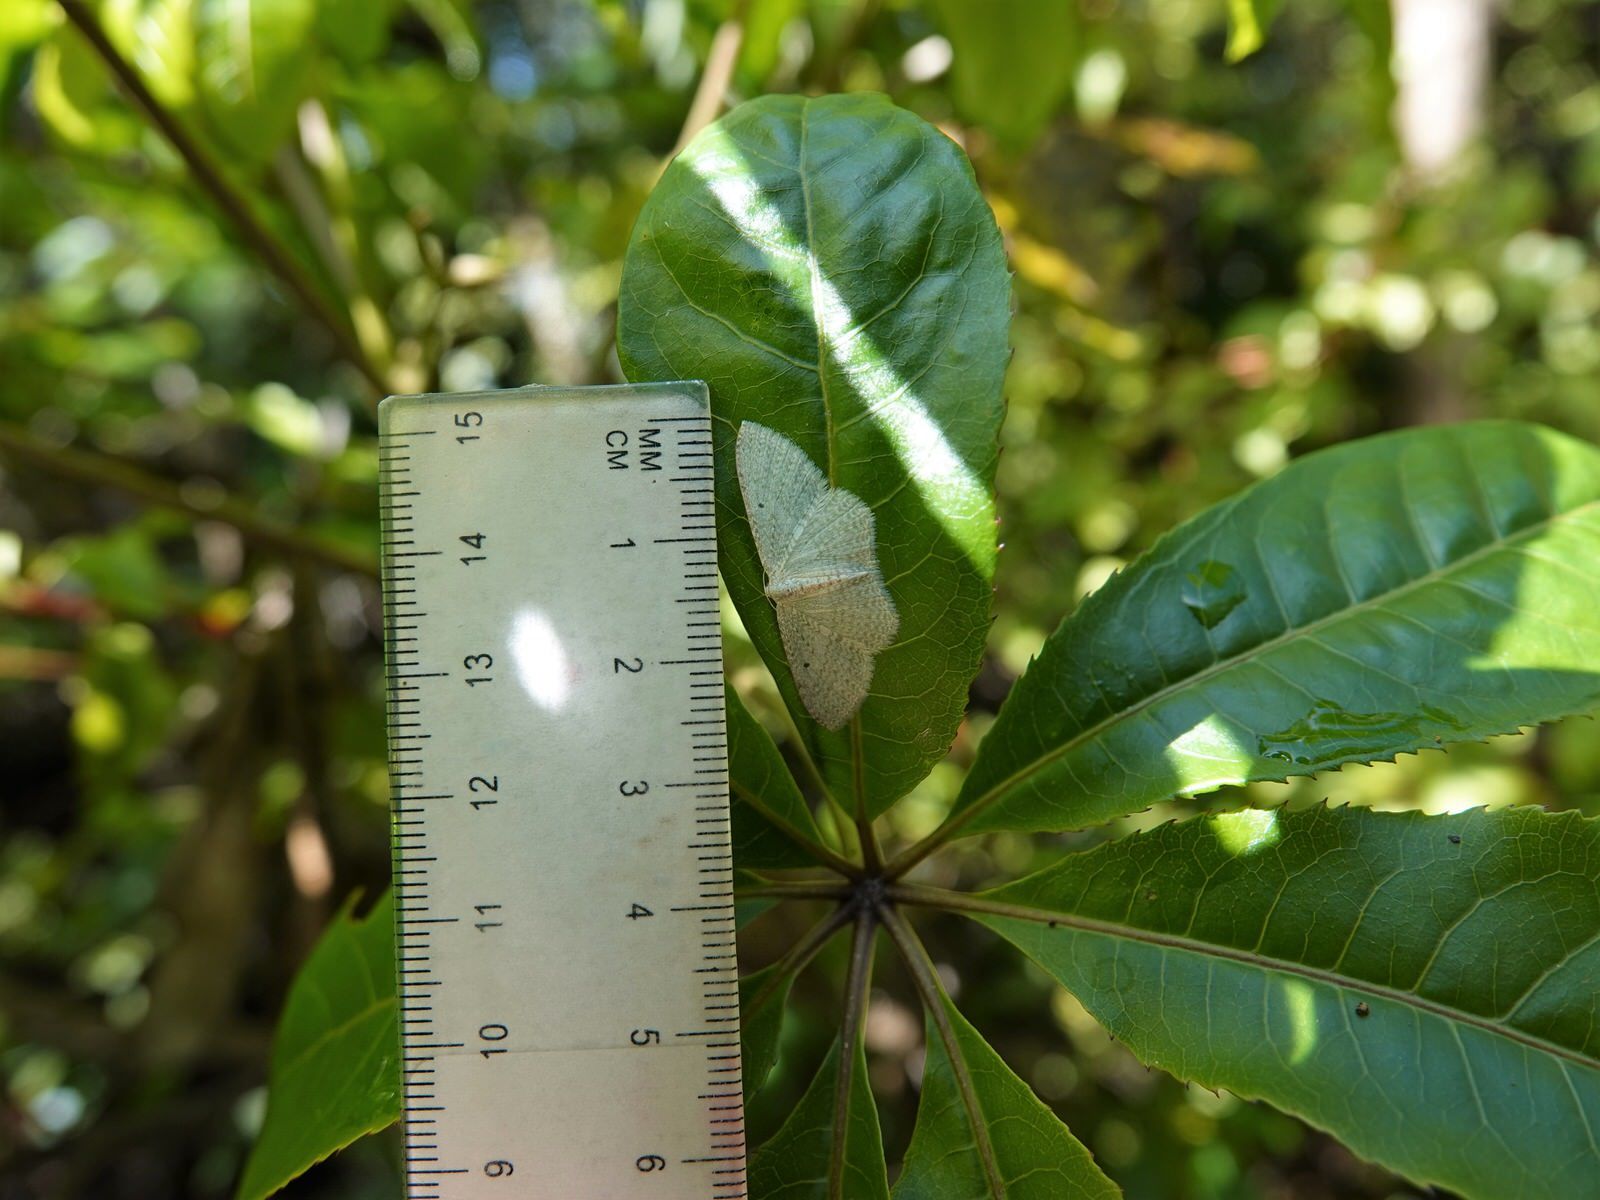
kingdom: Animalia
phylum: Arthropoda
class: Insecta
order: Lepidoptera
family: Geometridae
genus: Poecilasthena
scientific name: Poecilasthena pulchraria
